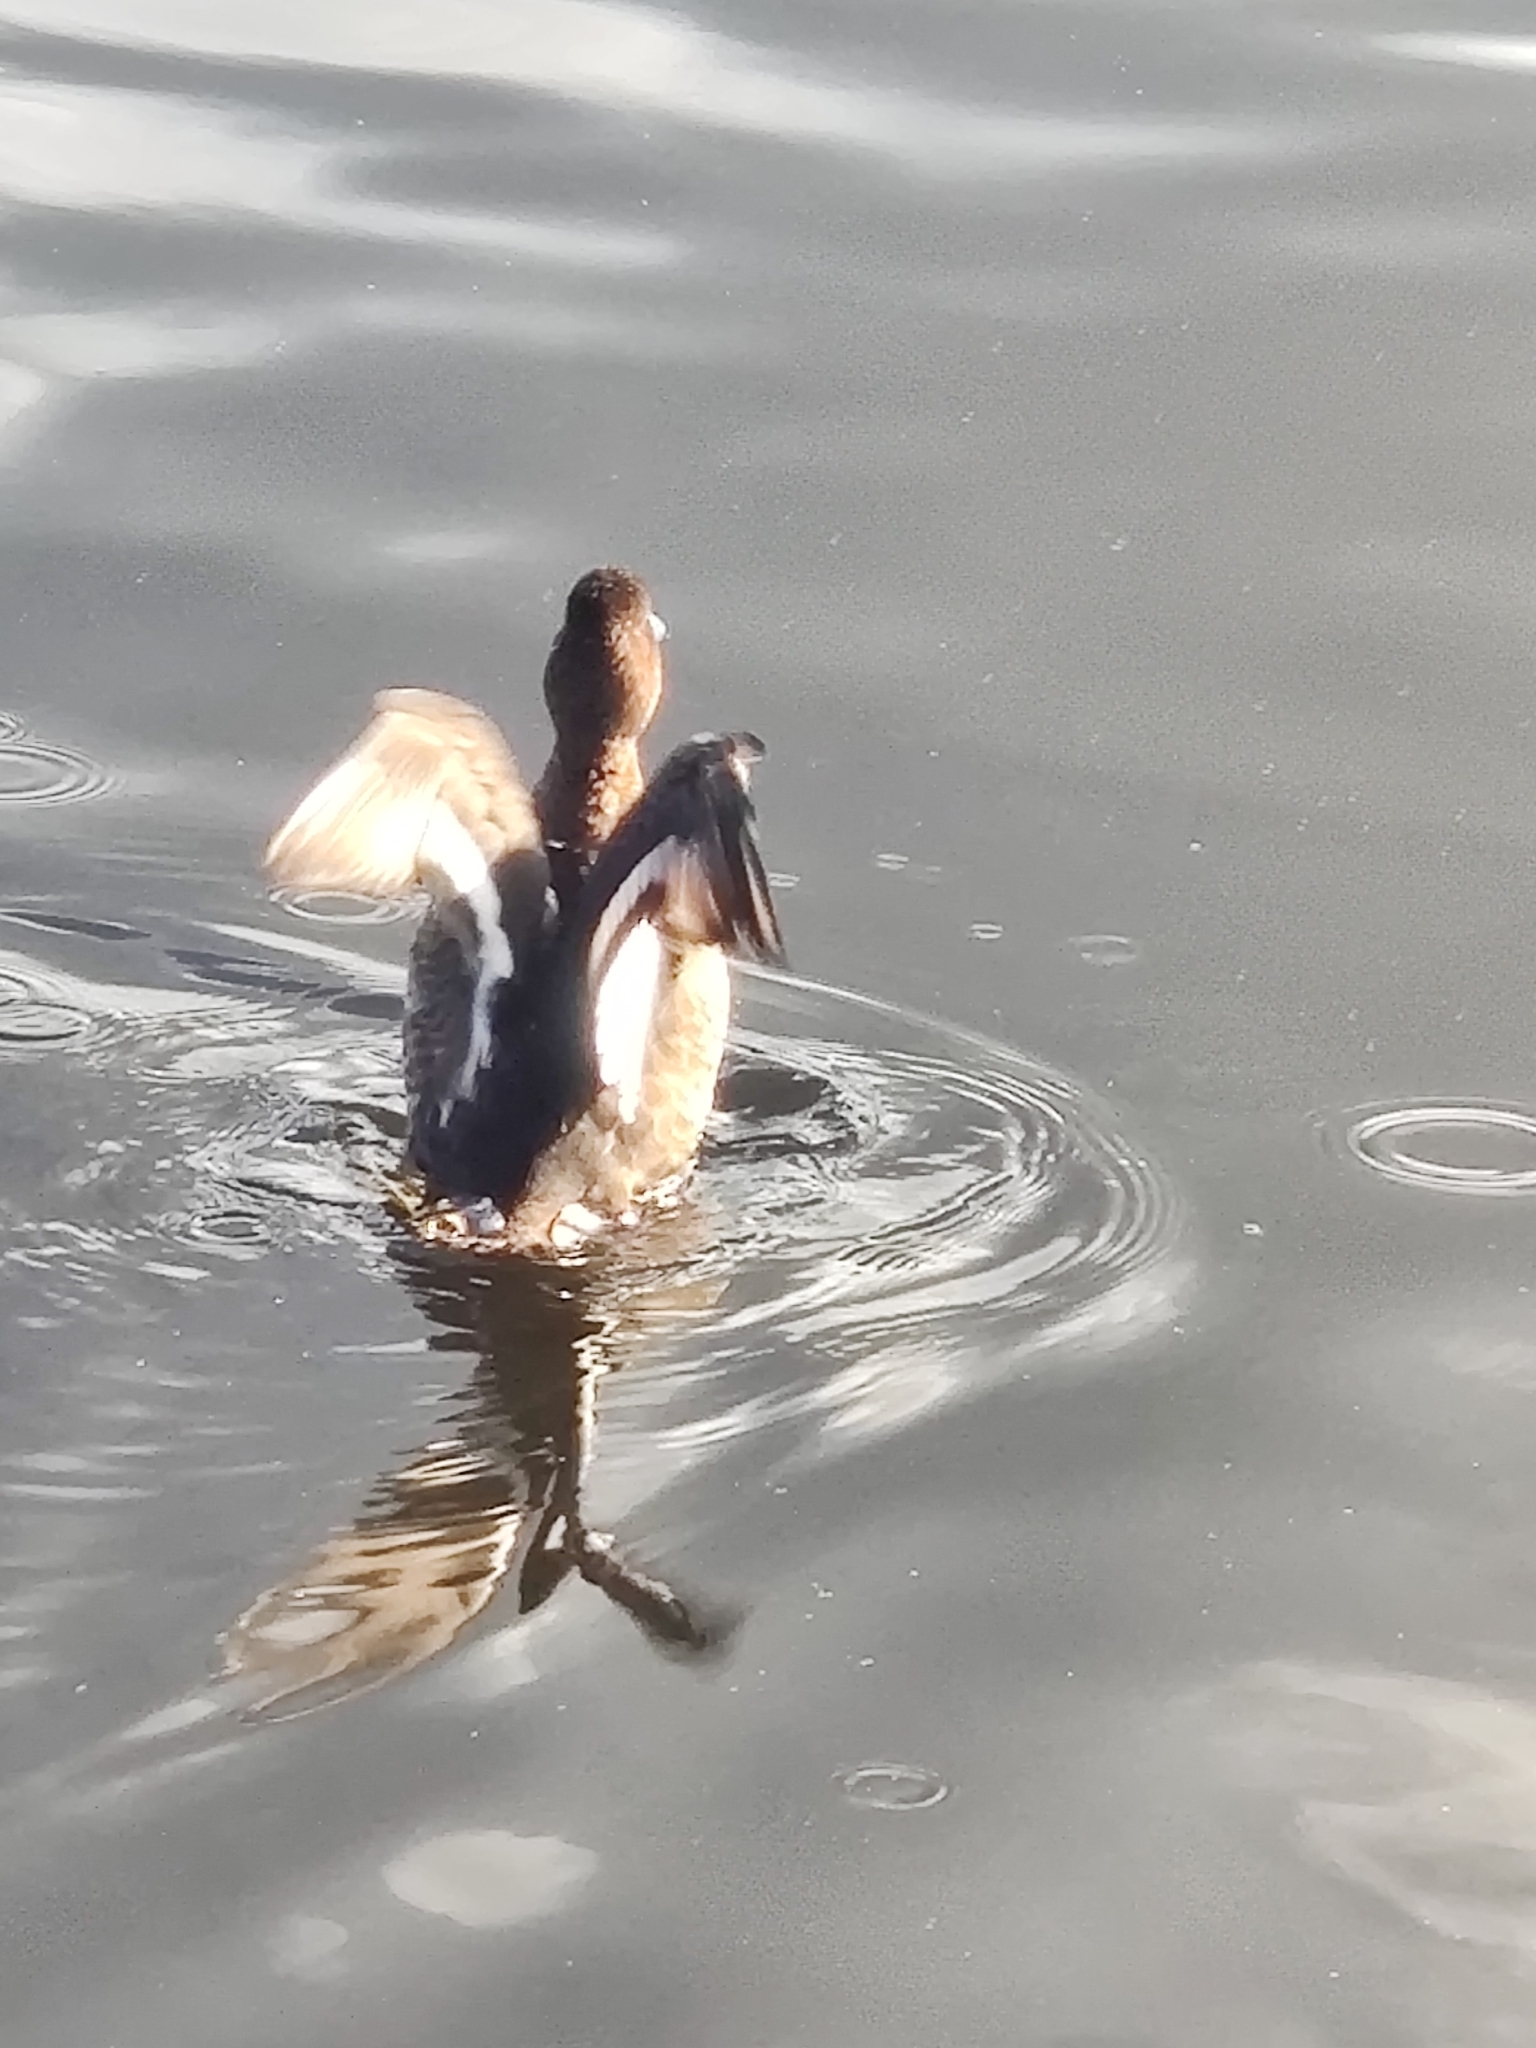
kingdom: Animalia
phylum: Chordata
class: Aves
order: Anseriformes
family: Anatidae
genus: Aythya
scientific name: Aythya affinis
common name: Lesser scaup
